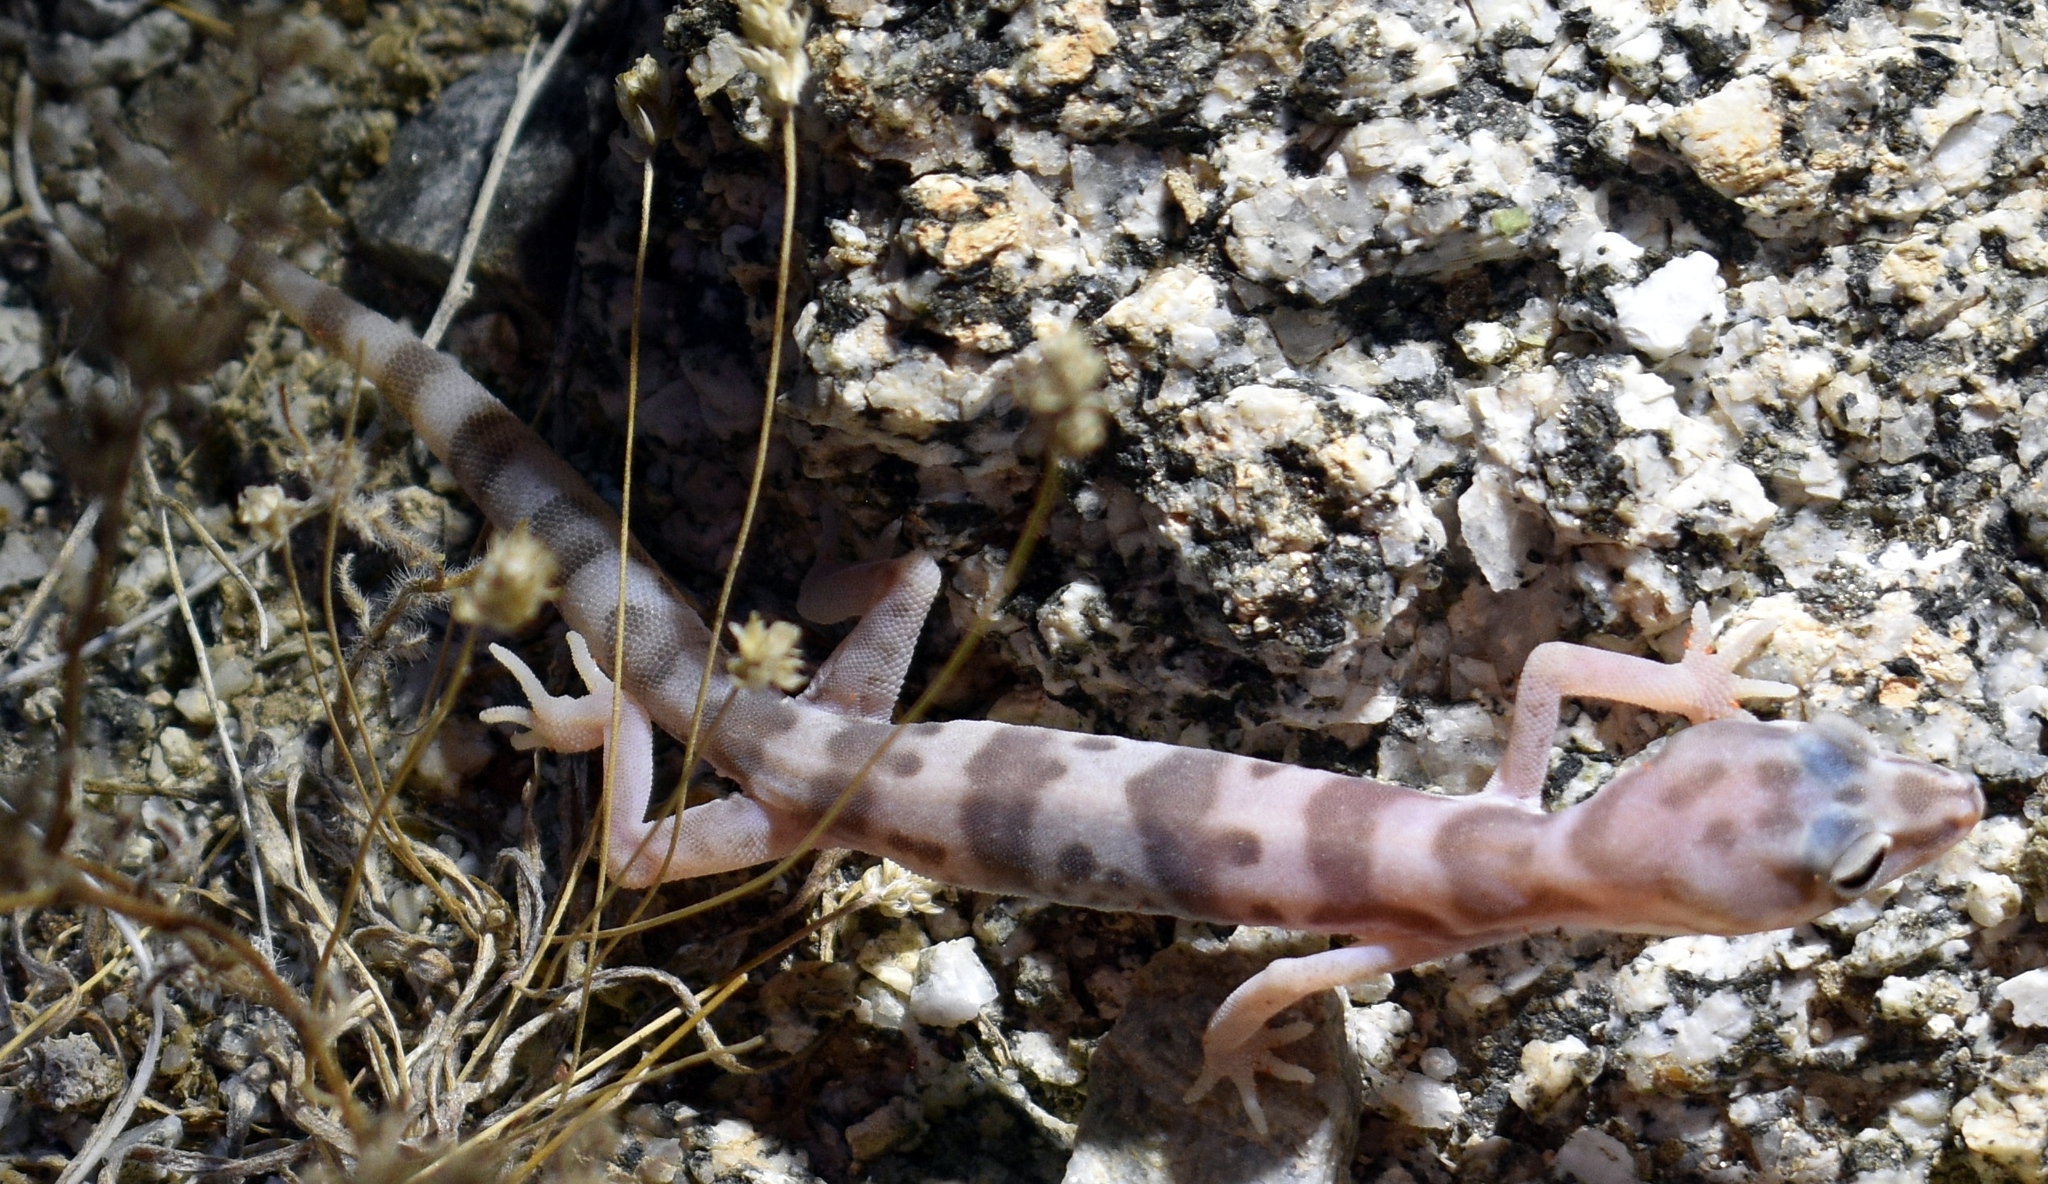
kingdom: Animalia
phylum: Chordata
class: Squamata
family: Eublepharidae
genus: Coleonyx
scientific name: Coleonyx variegatus
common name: Western banded gecko
